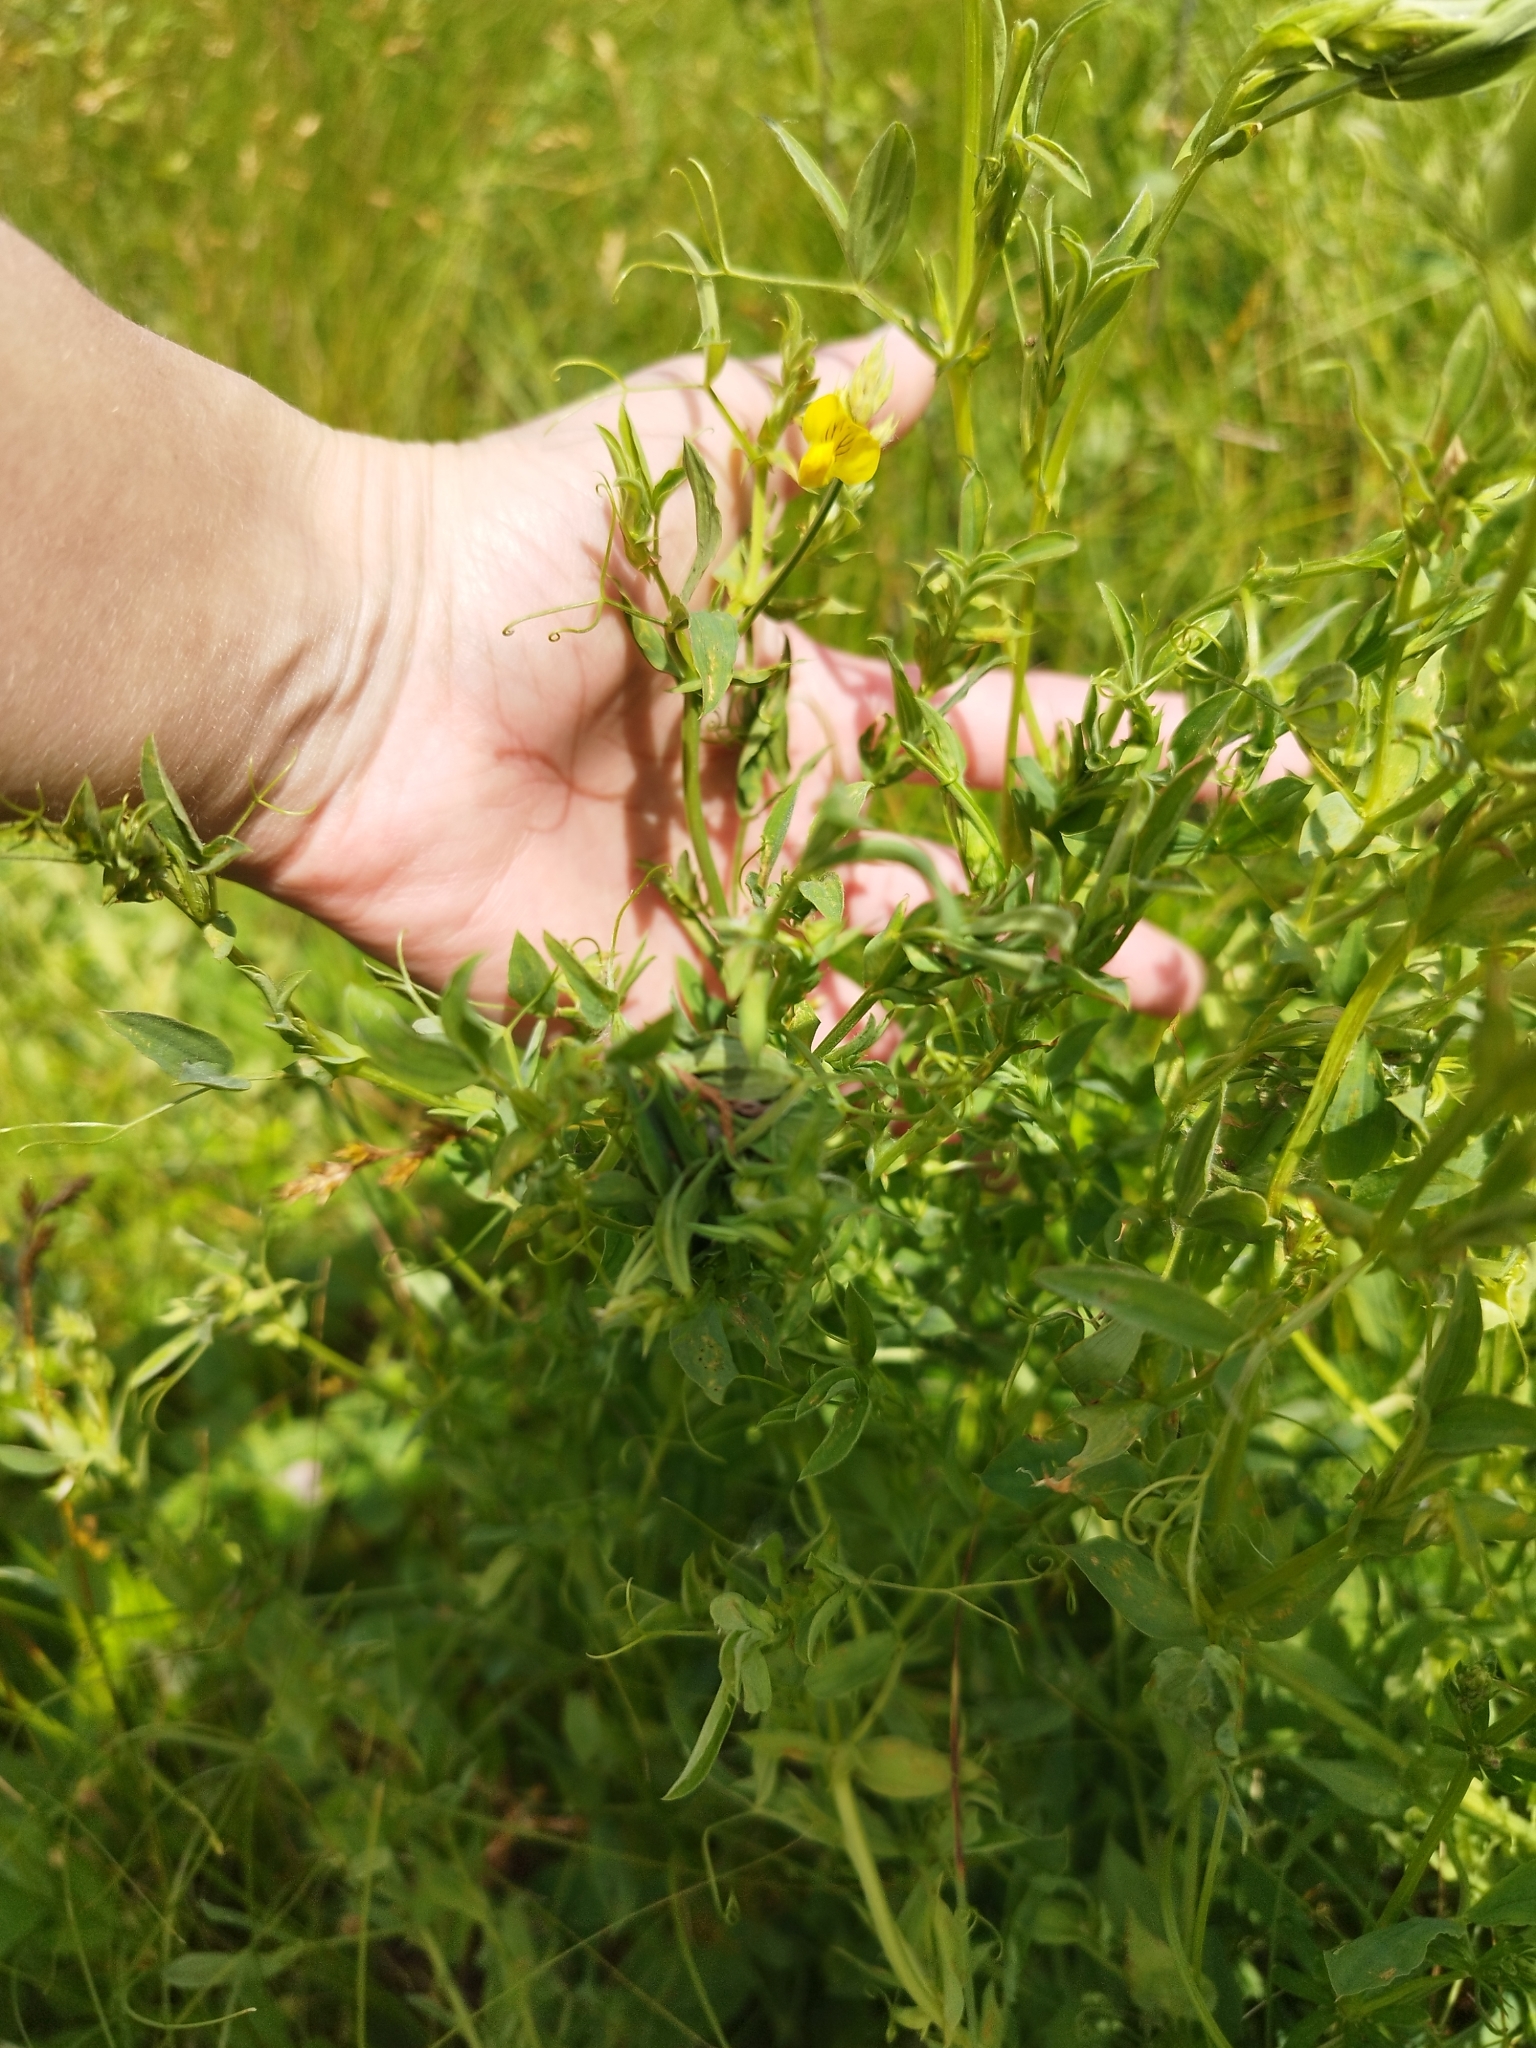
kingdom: Plantae
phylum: Tracheophyta
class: Magnoliopsida
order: Fabales
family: Fabaceae
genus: Lathyrus
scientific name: Lathyrus pratensis
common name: Meadow vetchling
